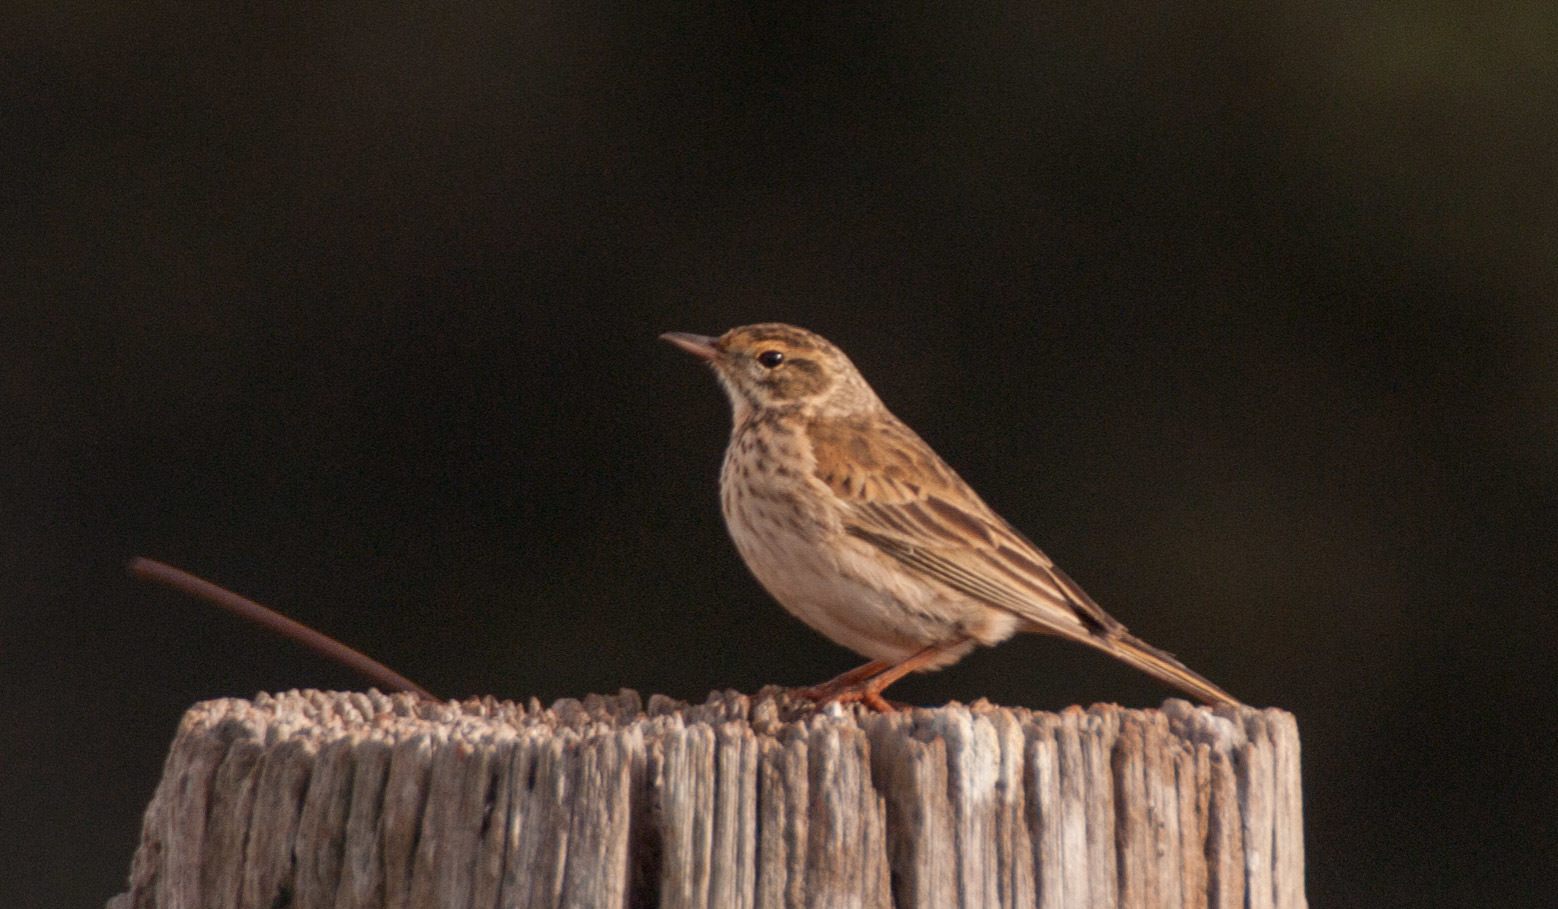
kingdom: Animalia
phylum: Chordata
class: Aves
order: Passeriformes
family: Motacillidae
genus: Anthus
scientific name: Anthus australis
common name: Australian pipit
